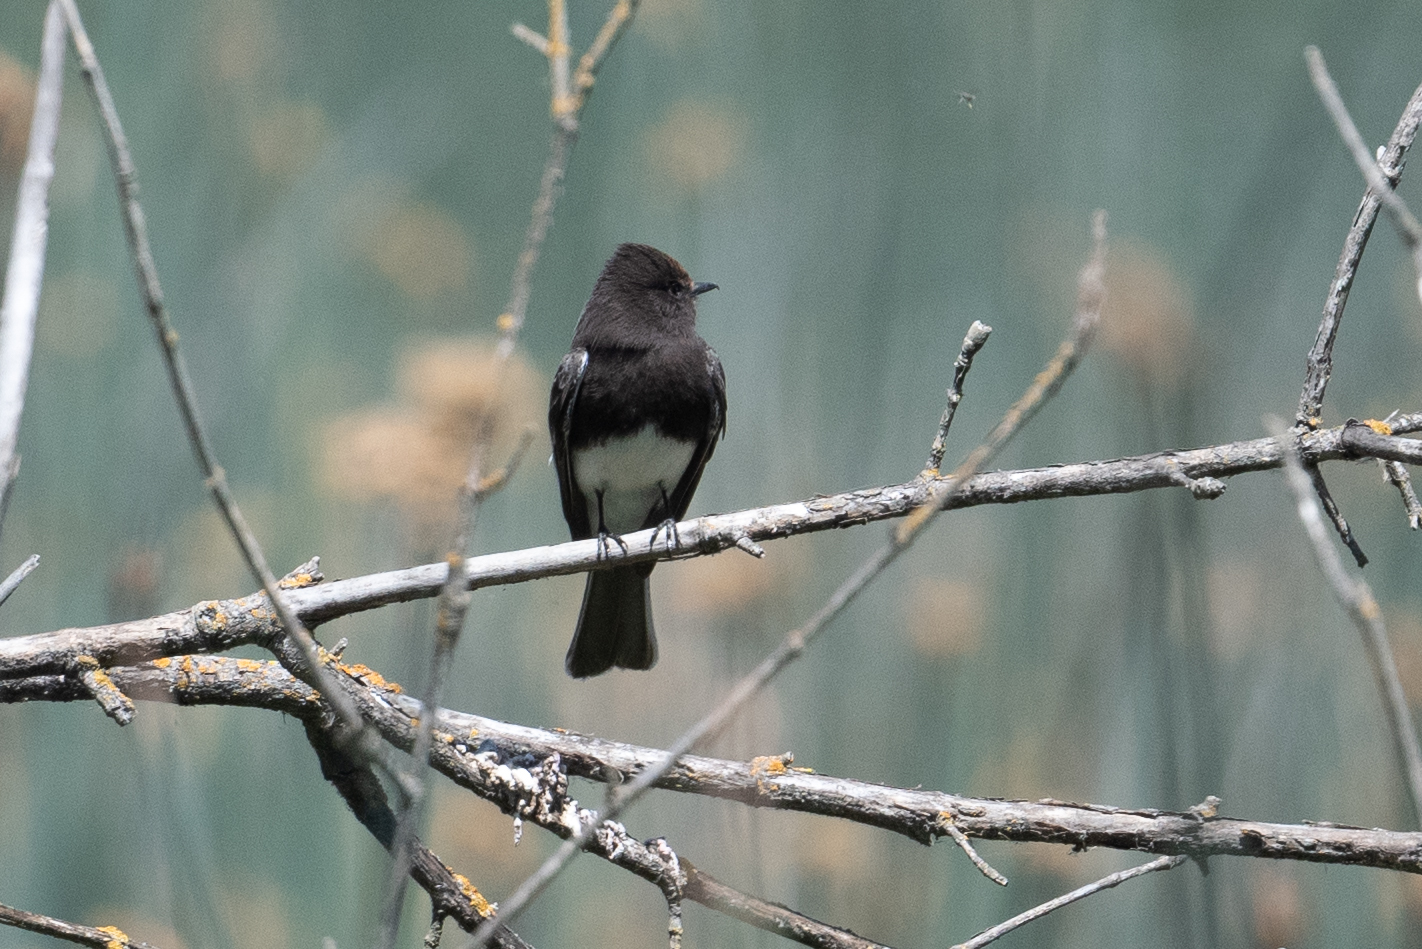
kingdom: Animalia
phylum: Chordata
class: Aves
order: Passeriformes
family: Tyrannidae
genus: Sayornis
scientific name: Sayornis nigricans
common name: Black phoebe
